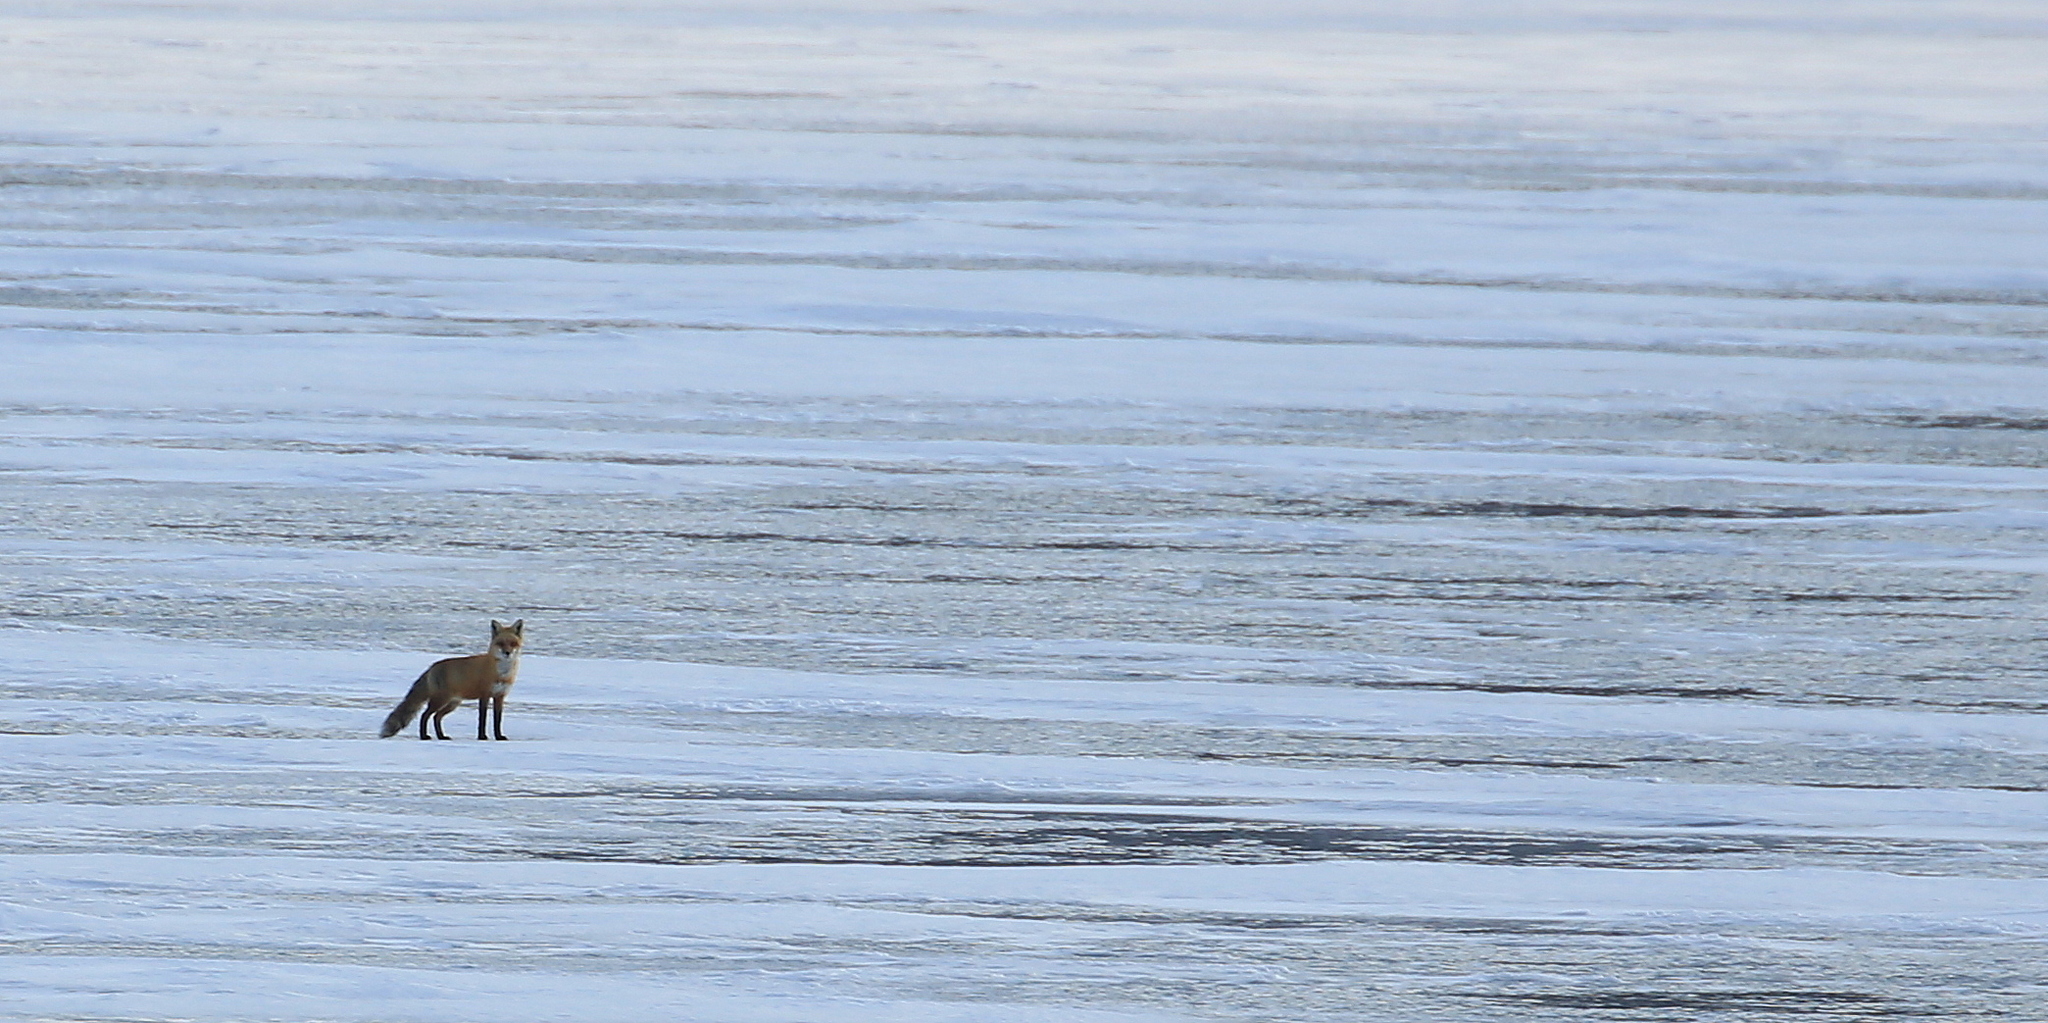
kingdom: Animalia
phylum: Chordata
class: Mammalia
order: Carnivora
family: Canidae
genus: Vulpes
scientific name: Vulpes vulpes
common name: Red fox
